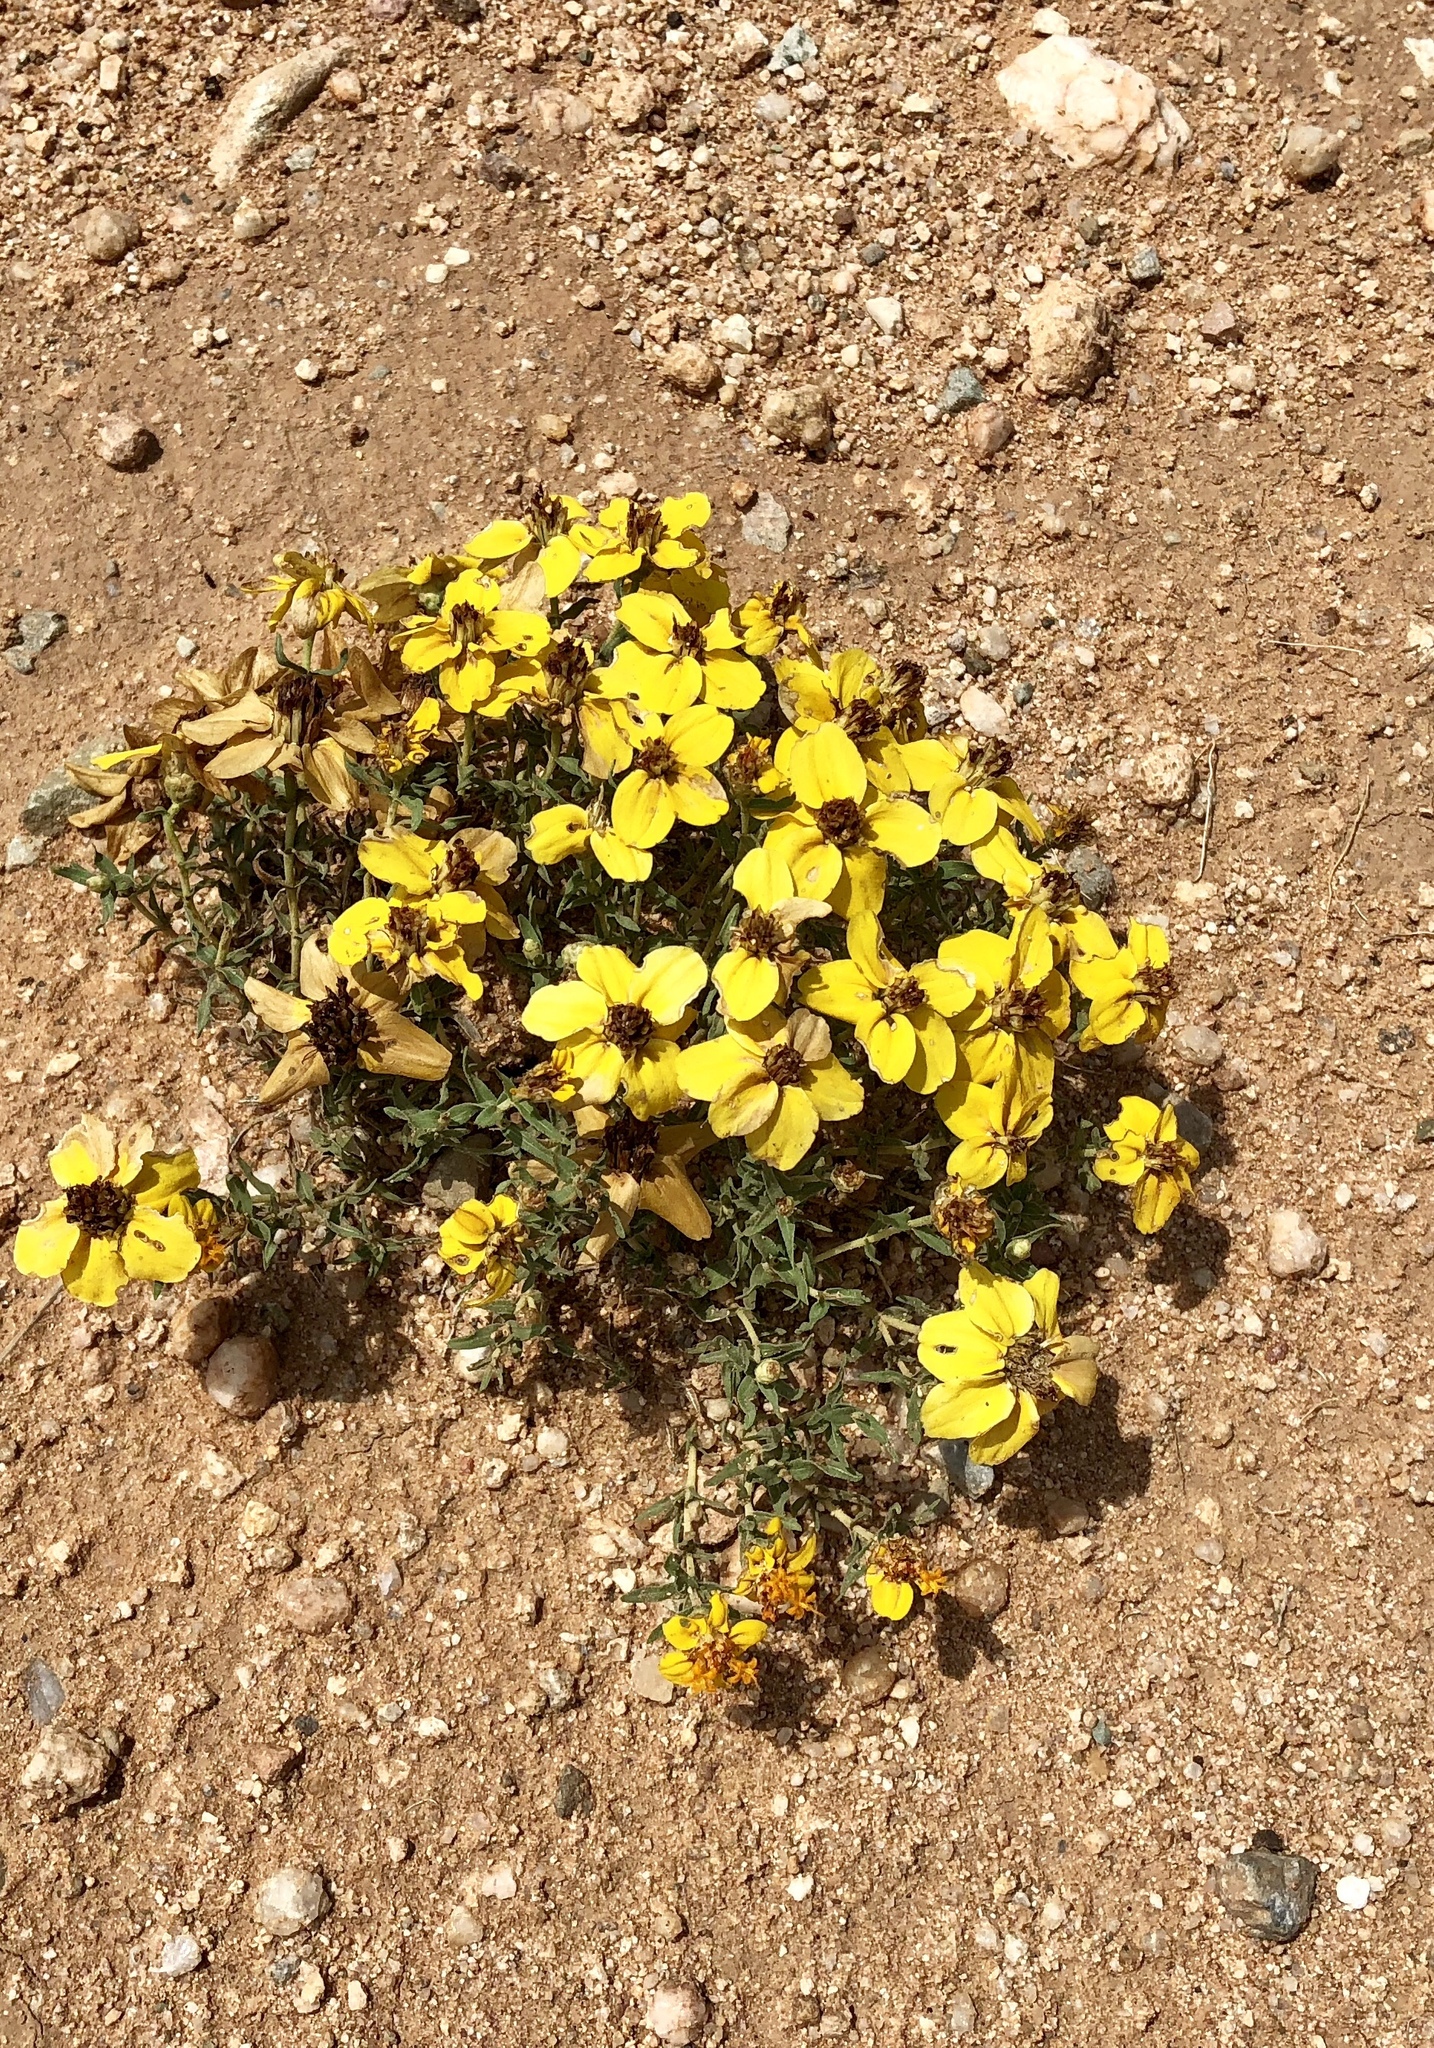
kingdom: Plantae
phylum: Tracheophyta
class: Magnoliopsida
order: Asterales
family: Asteraceae
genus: Zinnia
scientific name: Zinnia grandiflora
